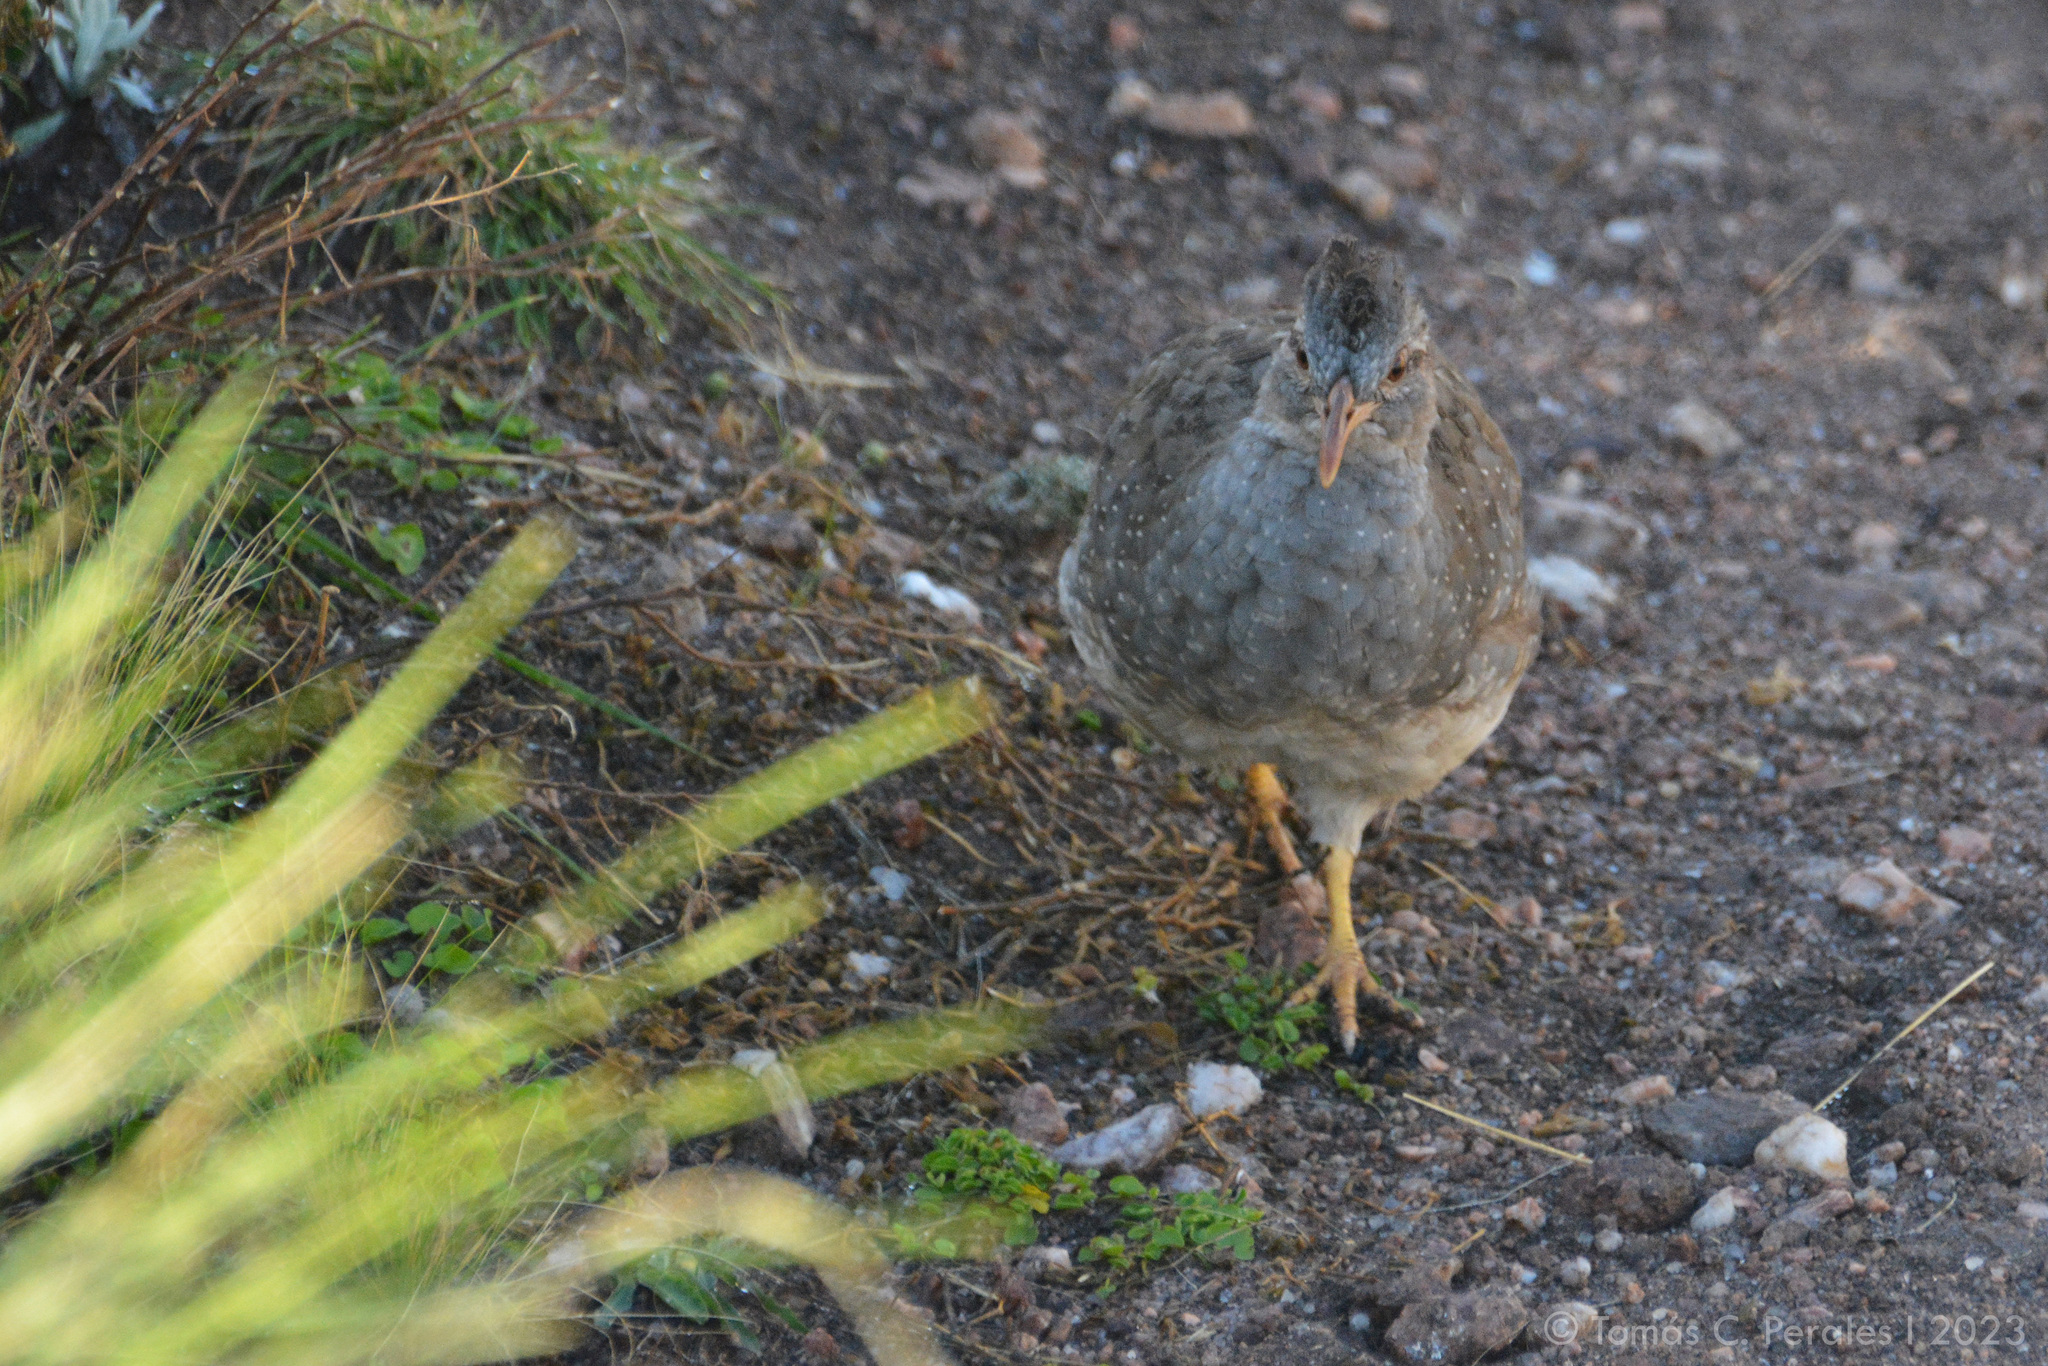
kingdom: Animalia
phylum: Chordata
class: Aves
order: Tinamiformes
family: Tinamidae
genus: Nothoprocta
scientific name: Nothoprocta pentlandii
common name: Andean tinamou
